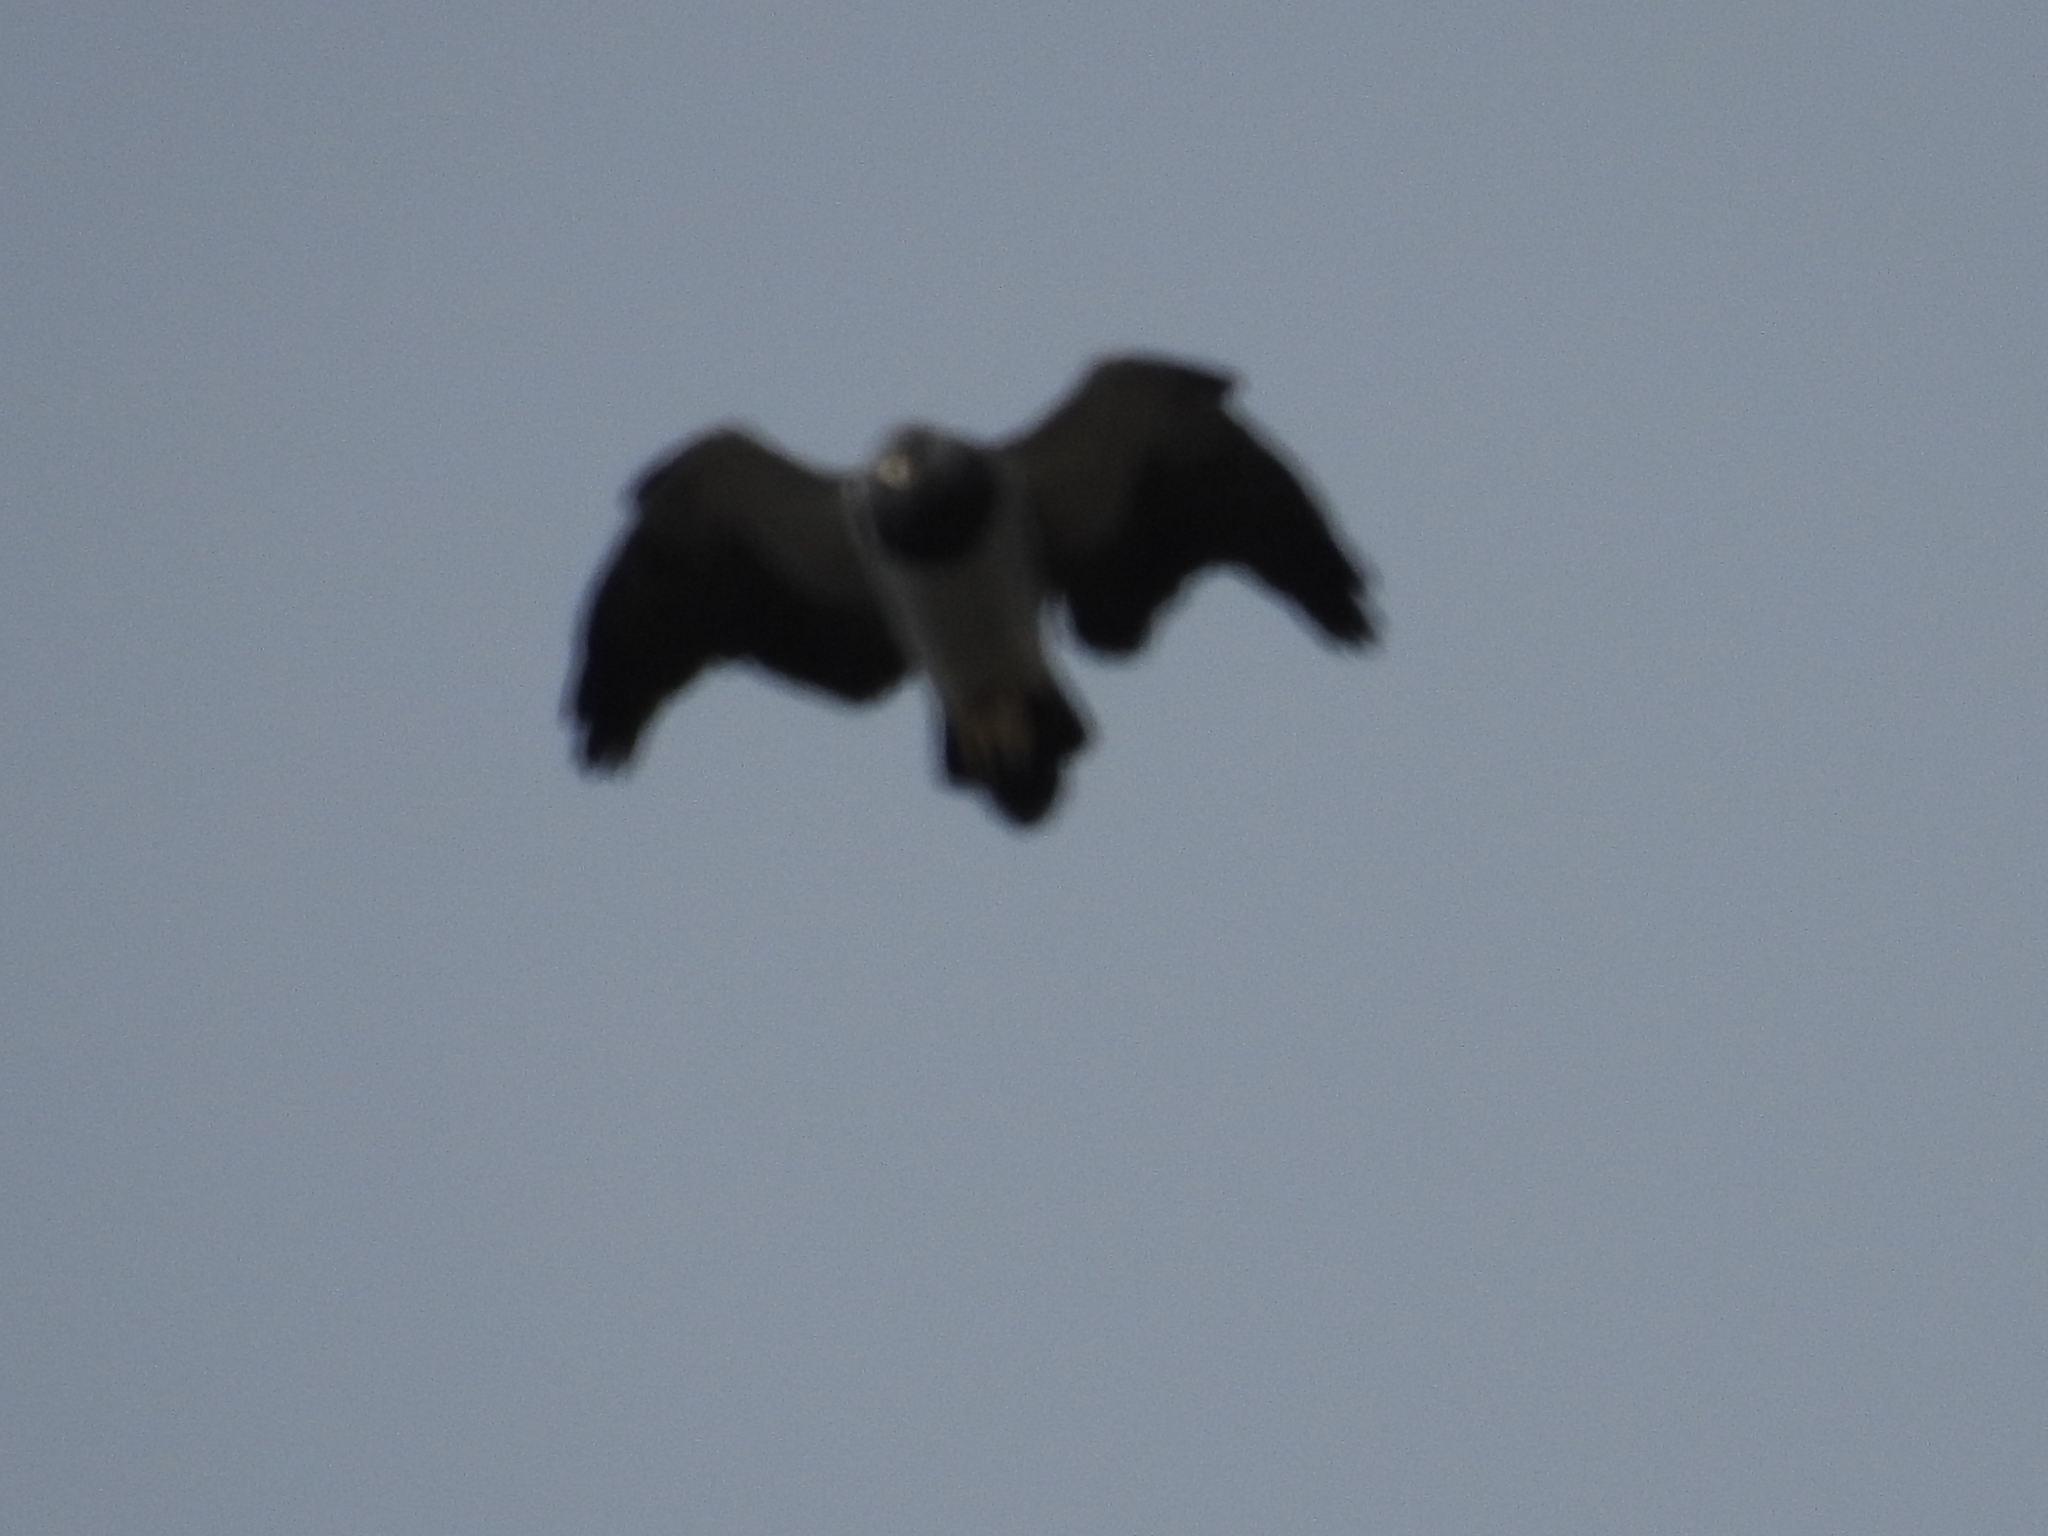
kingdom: Animalia
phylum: Chordata
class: Aves
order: Accipitriformes
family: Accipitridae
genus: Geranoaetus
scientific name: Geranoaetus melanoleucus
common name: Black-chested buzzard-eagle
